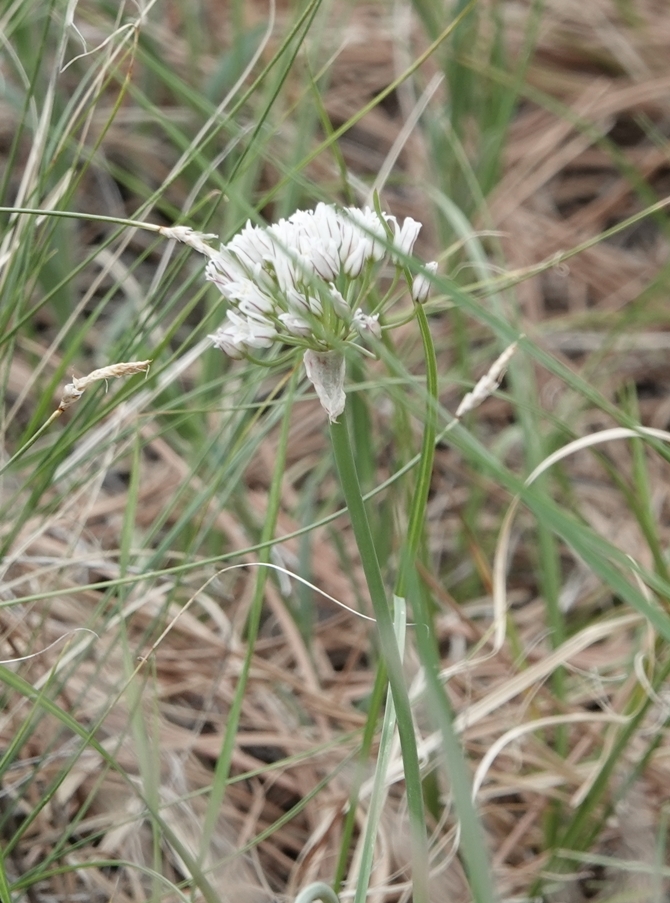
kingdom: Plantae
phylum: Tracheophyta
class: Liliopsida
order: Asparagales
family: Amaryllidaceae
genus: Allium
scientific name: Allium textile
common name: Prairie onion
